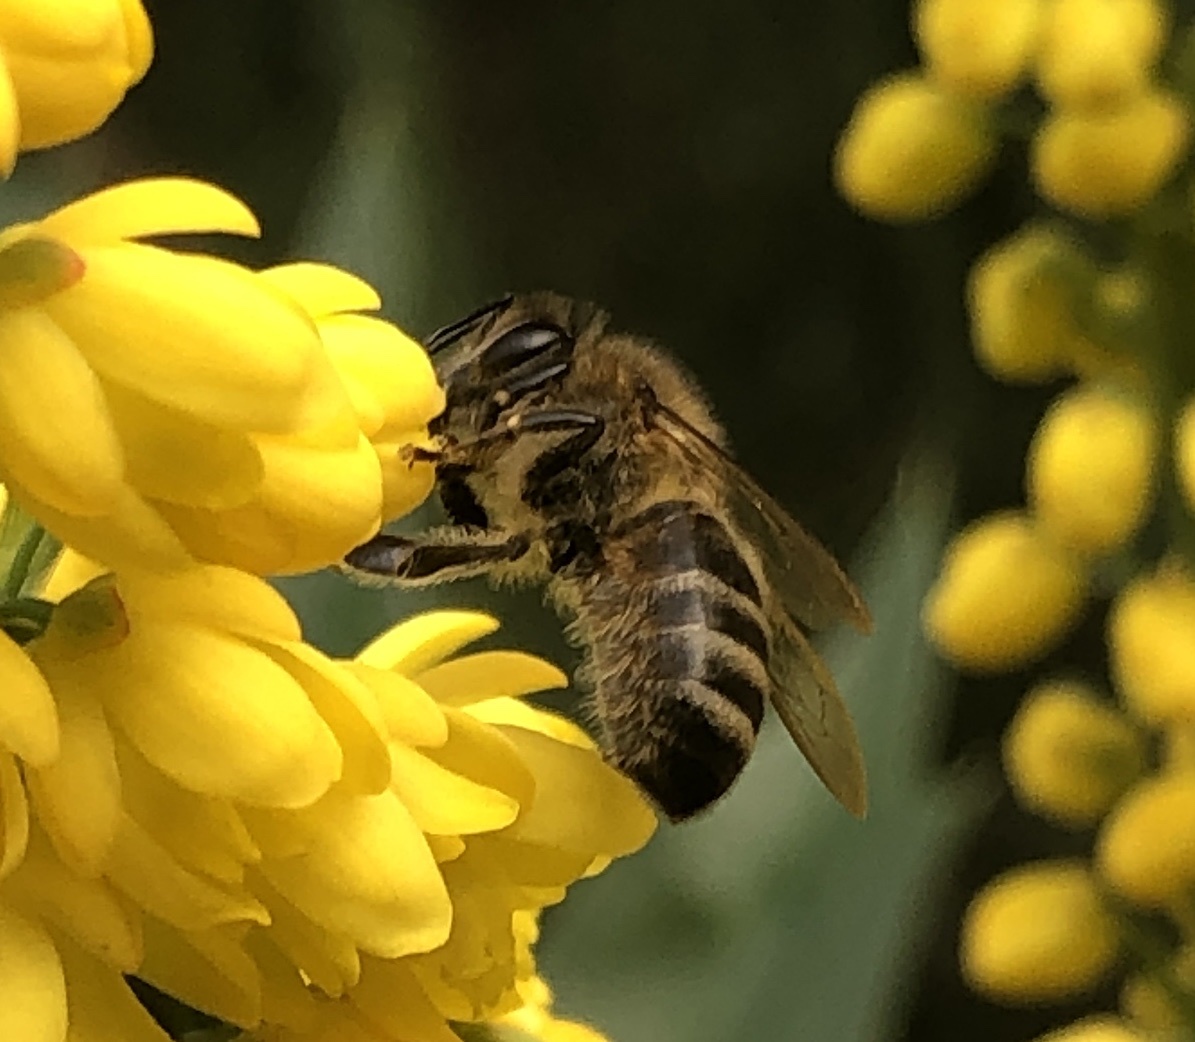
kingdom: Animalia
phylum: Arthropoda
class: Insecta
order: Hymenoptera
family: Apidae
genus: Apis
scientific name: Apis mellifera
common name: Honey bee
